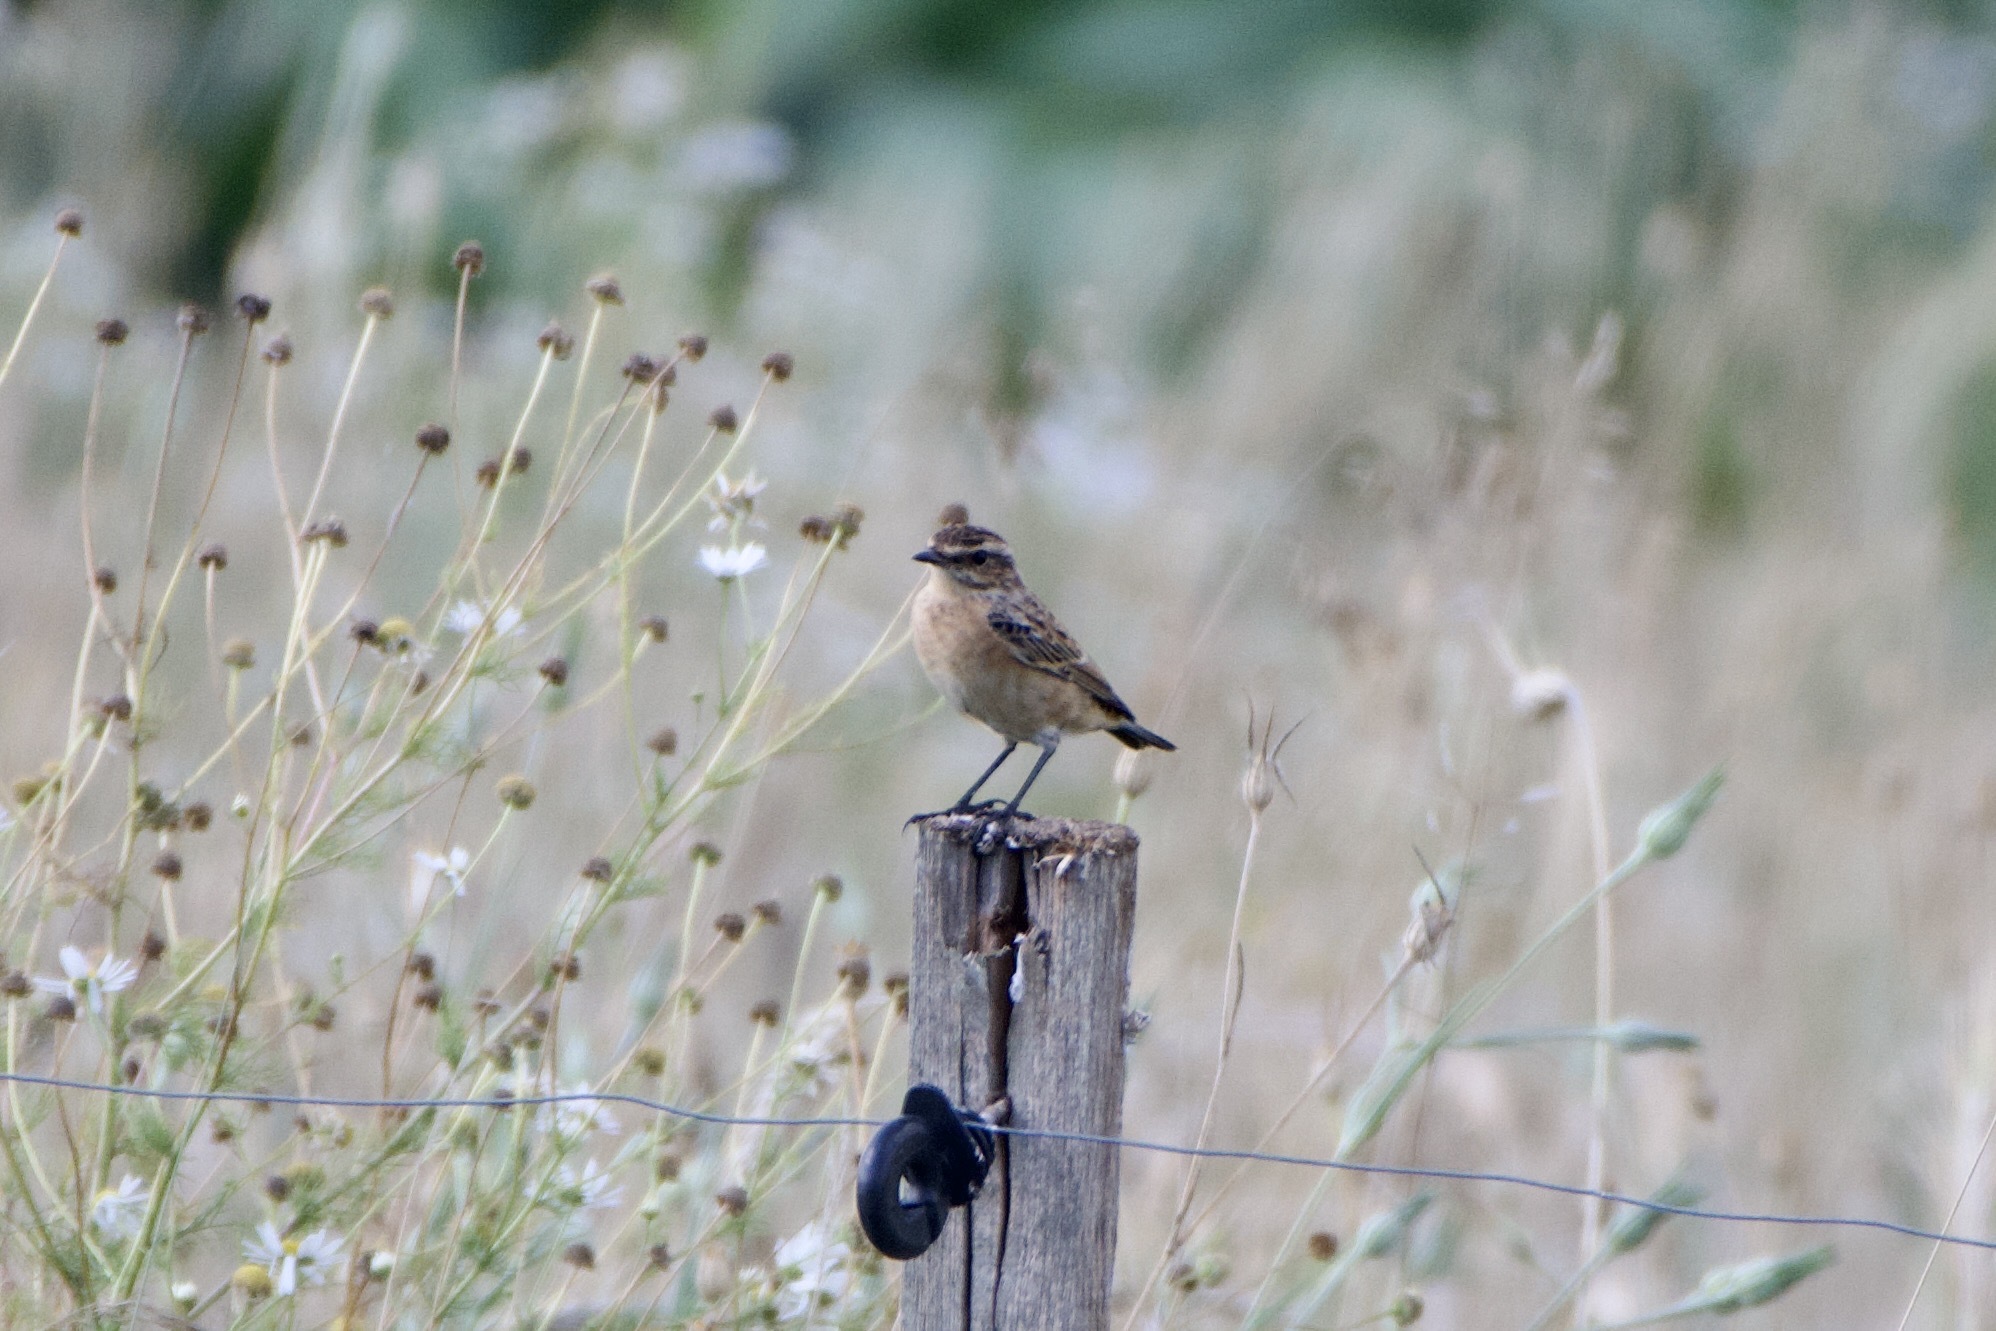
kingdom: Animalia
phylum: Chordata
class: Aves
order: Passeriformes
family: Muscicapidae
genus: Saxicola
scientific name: Saxicola rubetra
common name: Whinchat
